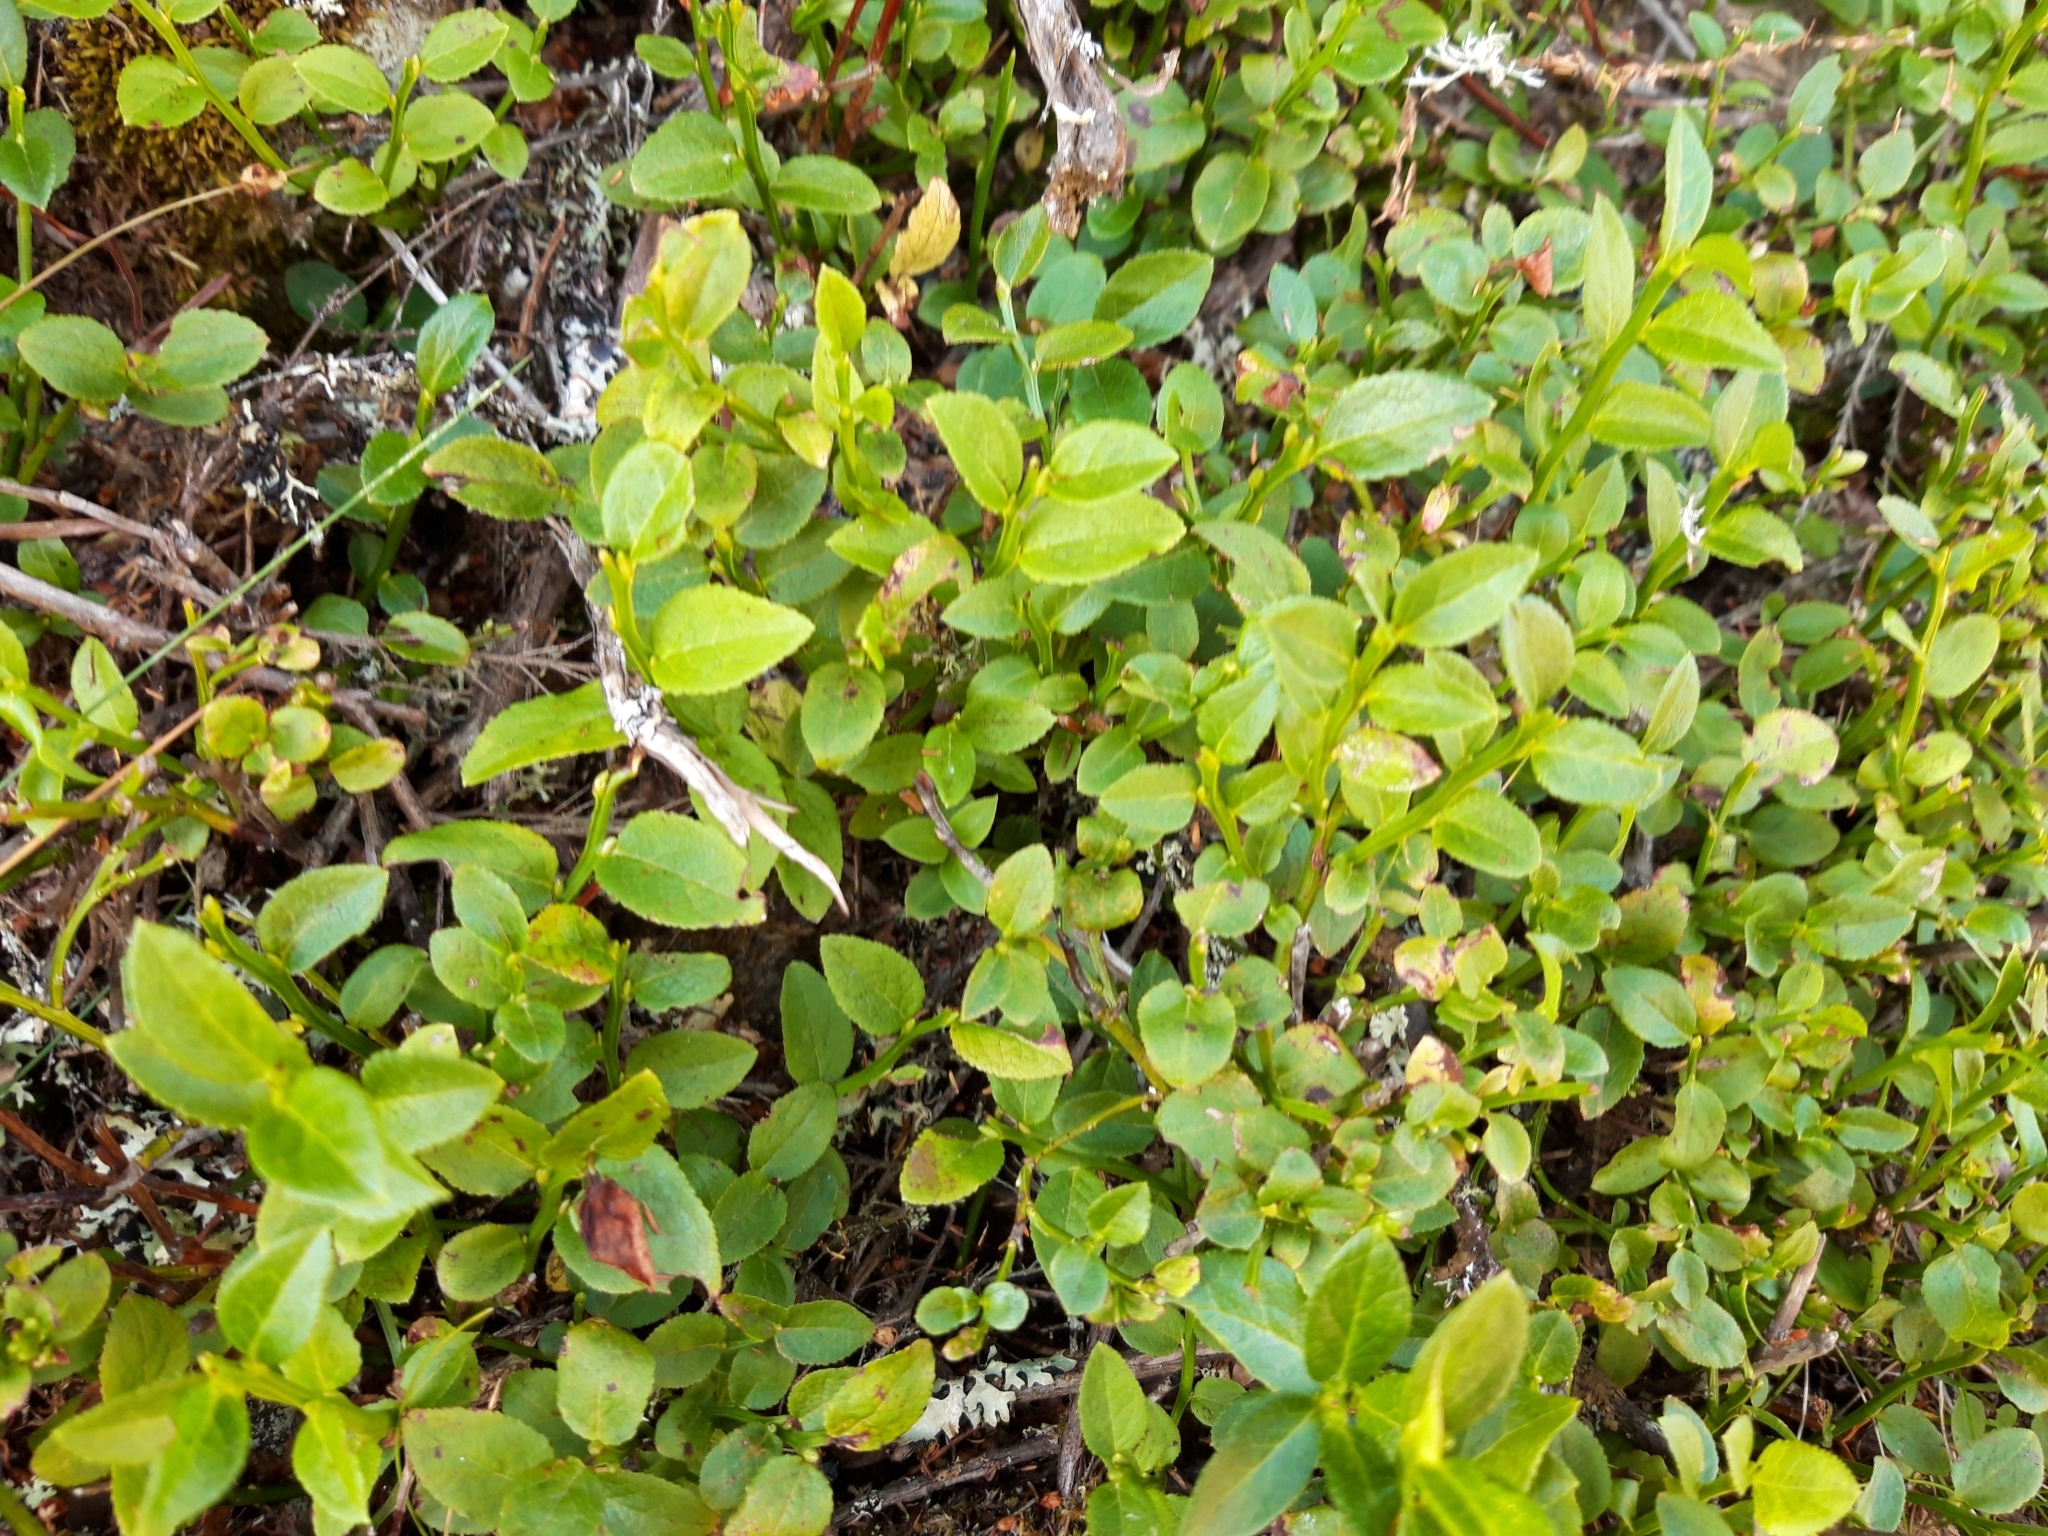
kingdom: Plantae
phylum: Tracheophyta
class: Magnoliopsida
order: Ericales
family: Ericaceae
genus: Vaccinium
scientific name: Vaccinium myrtillus
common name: Bilberry
